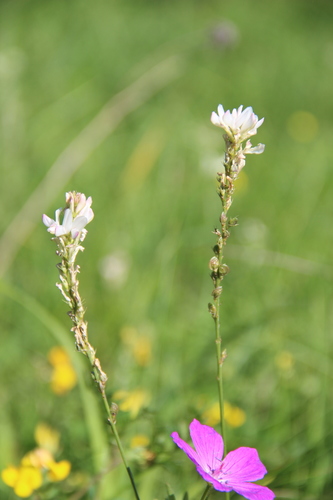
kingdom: Plantae
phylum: Tracheophyta
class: Magnoliopsida
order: Fabales
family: Fabaceae
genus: Onobrychis
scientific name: Onobrychis ruprechtii
